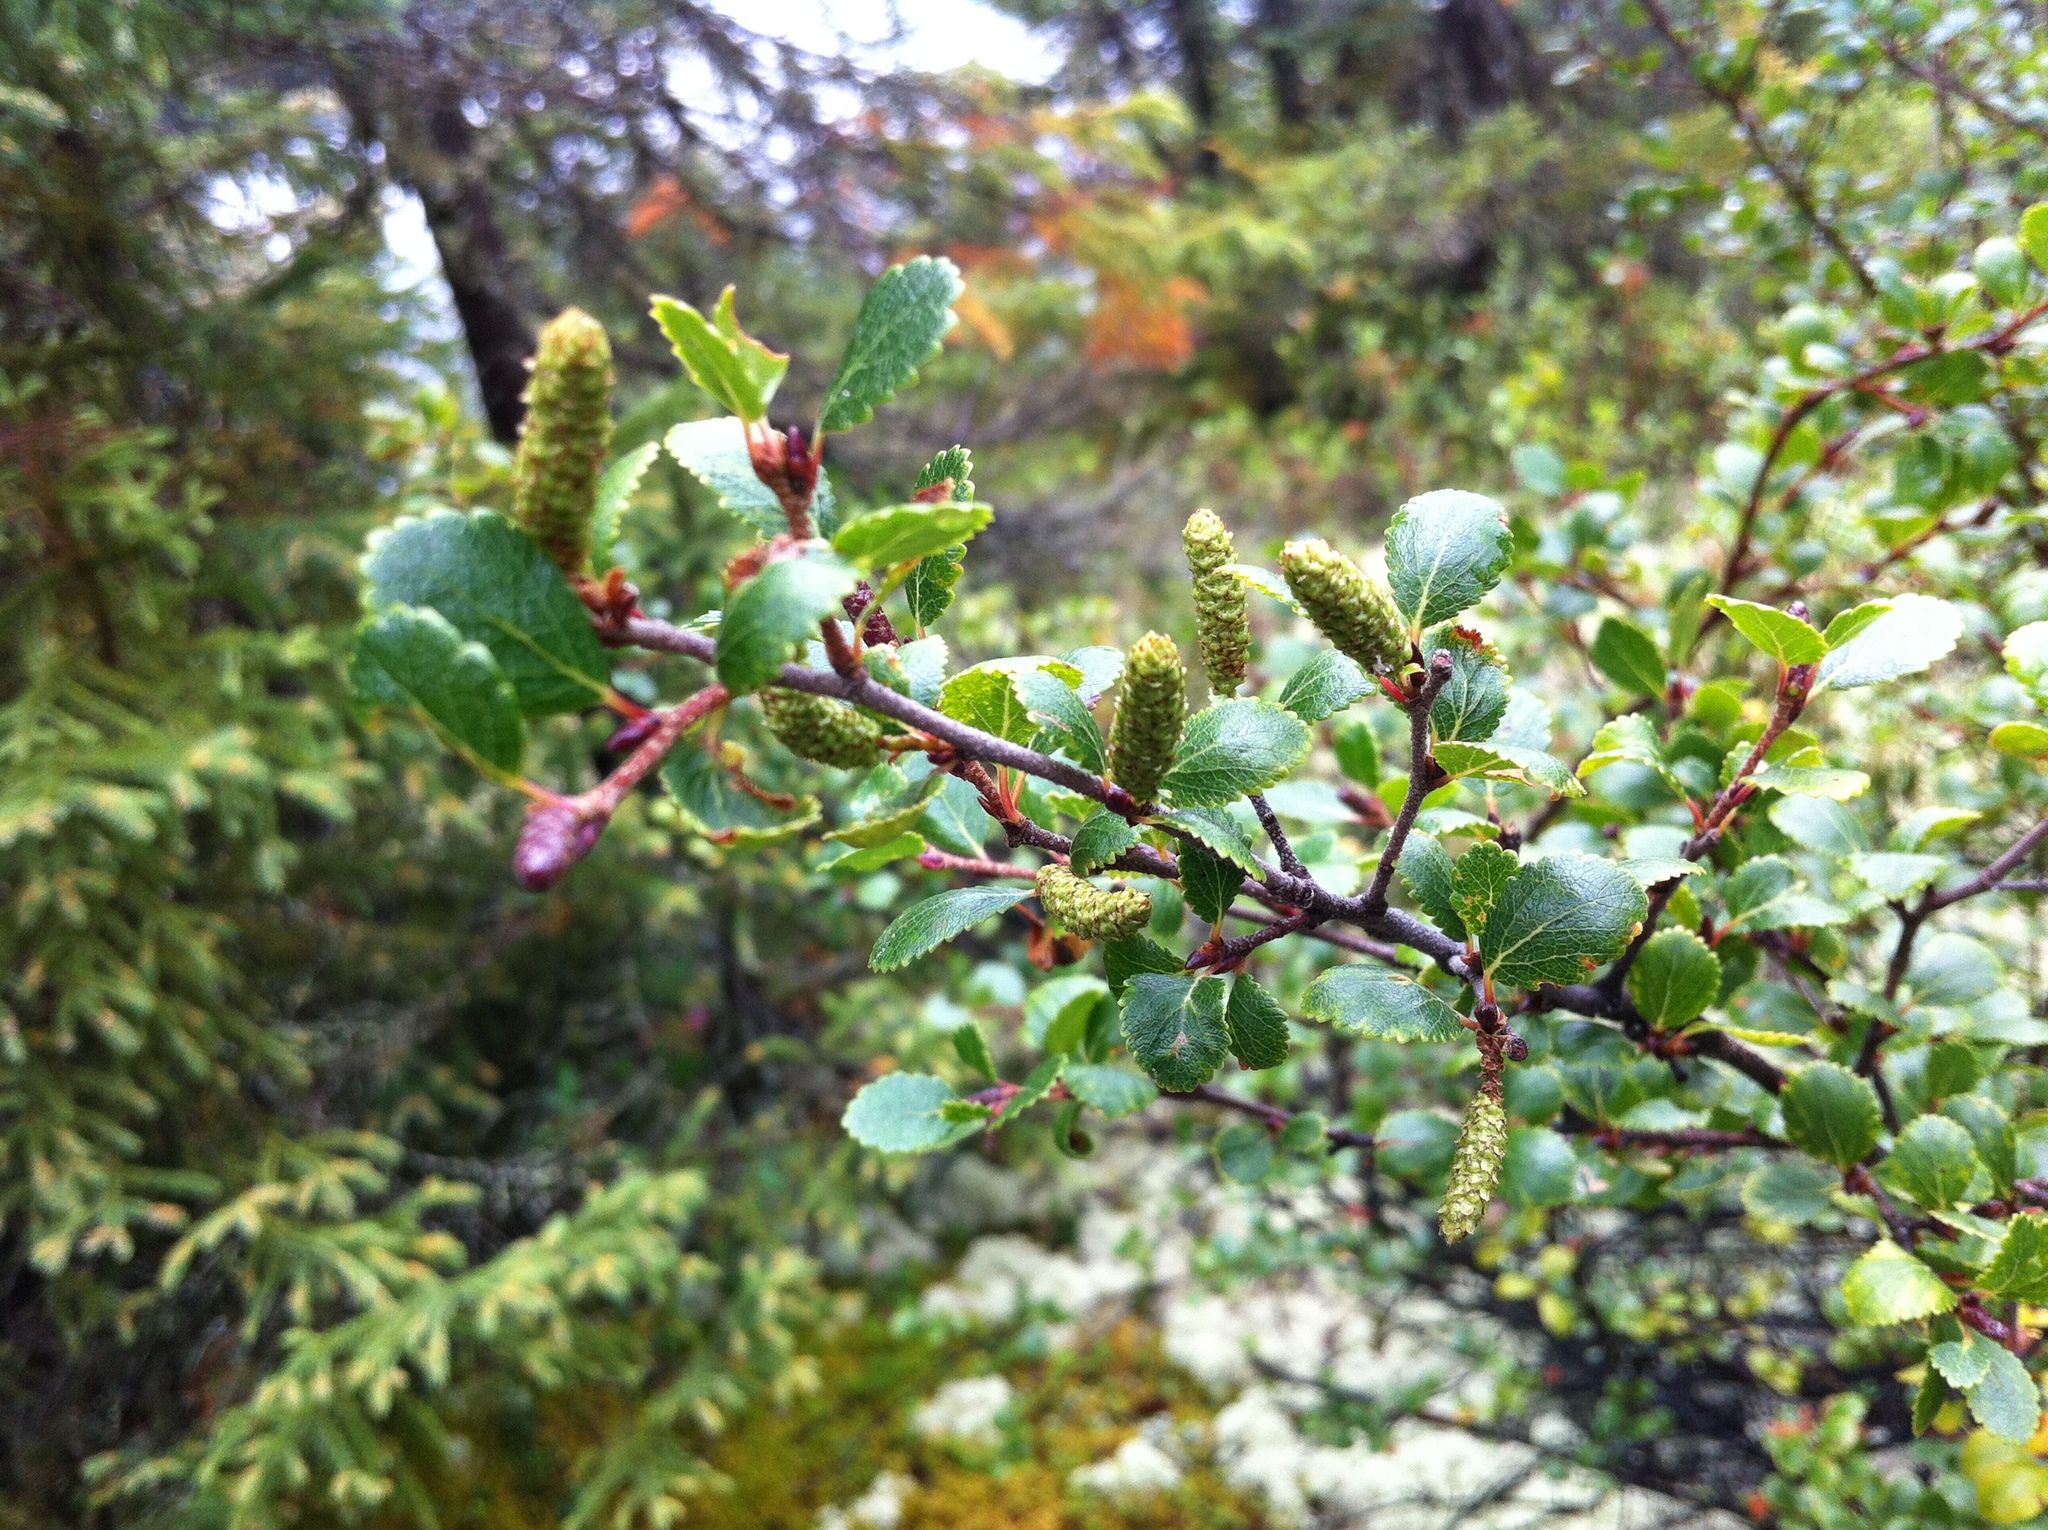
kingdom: Plantae
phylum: Tracheophyta
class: Magnoliopsida
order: Fagales
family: Betulaceae
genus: Betula
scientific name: Betula glandulosa
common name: Dwarf birch
